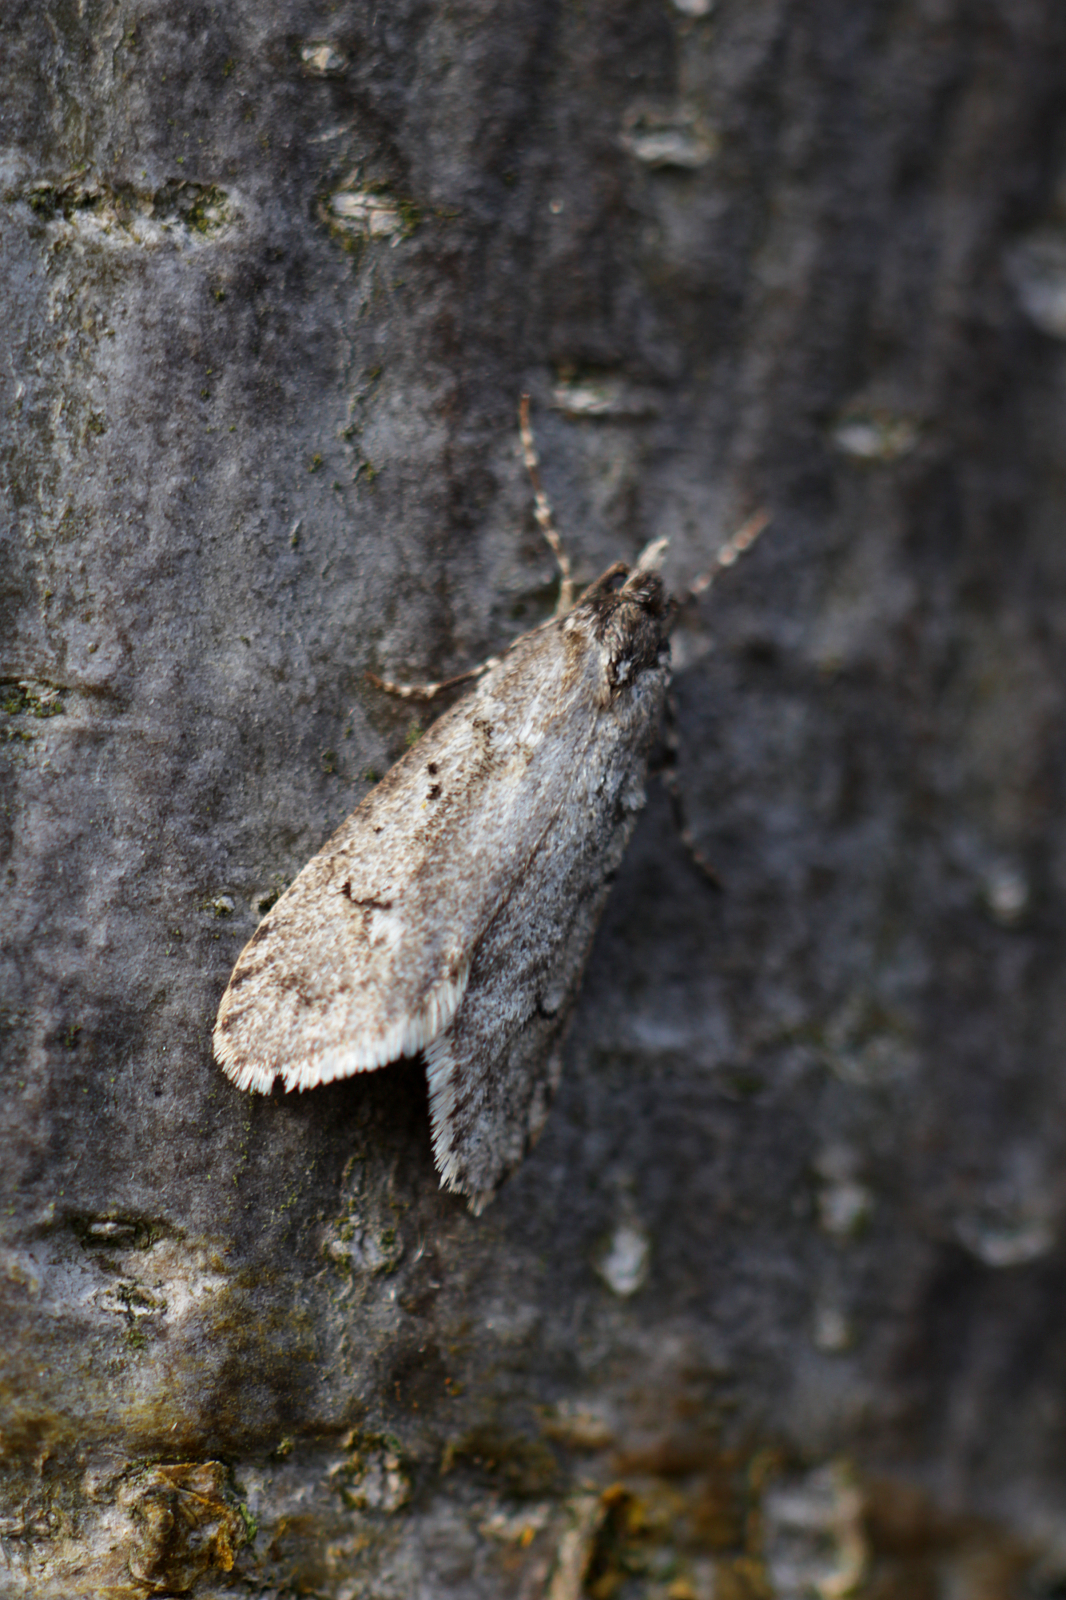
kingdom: Animalia
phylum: Arthropoda
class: Insecta
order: Lepidoptera
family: Lypusidae
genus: Diurnea
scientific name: Diurnea fagella
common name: March tubic
